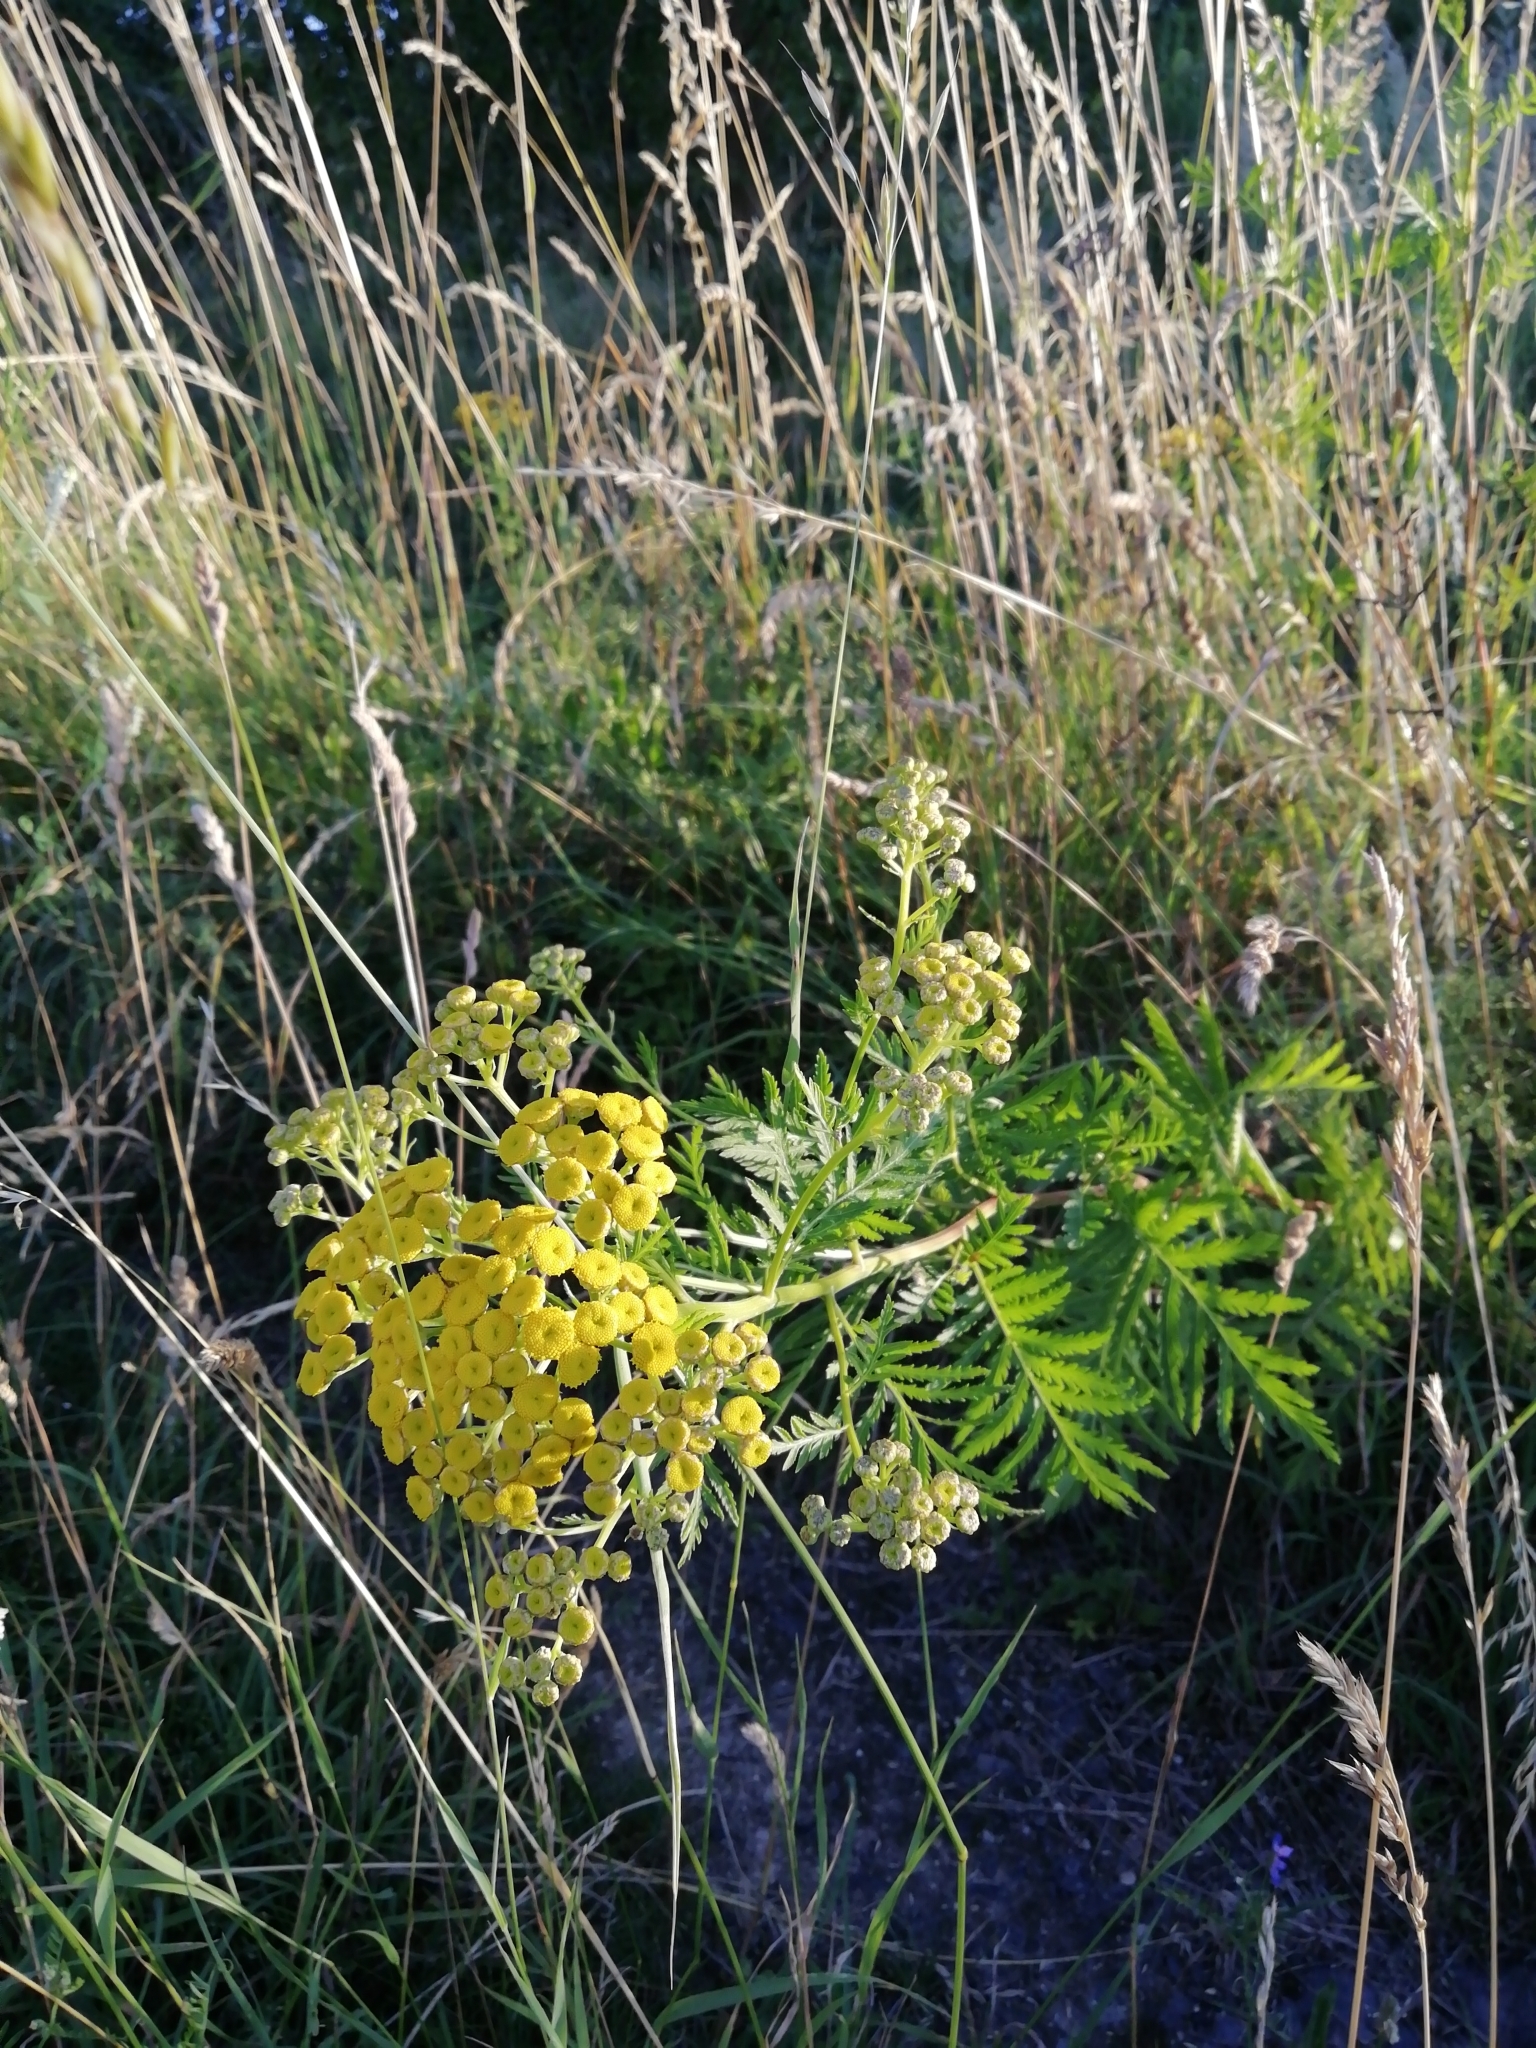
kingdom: Plantae
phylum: Tracheophyta
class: Magnoliopsida
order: Asterales
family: Asteraceae
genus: Tanacetum
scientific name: Tanacetum vulgare
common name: Common tansy
